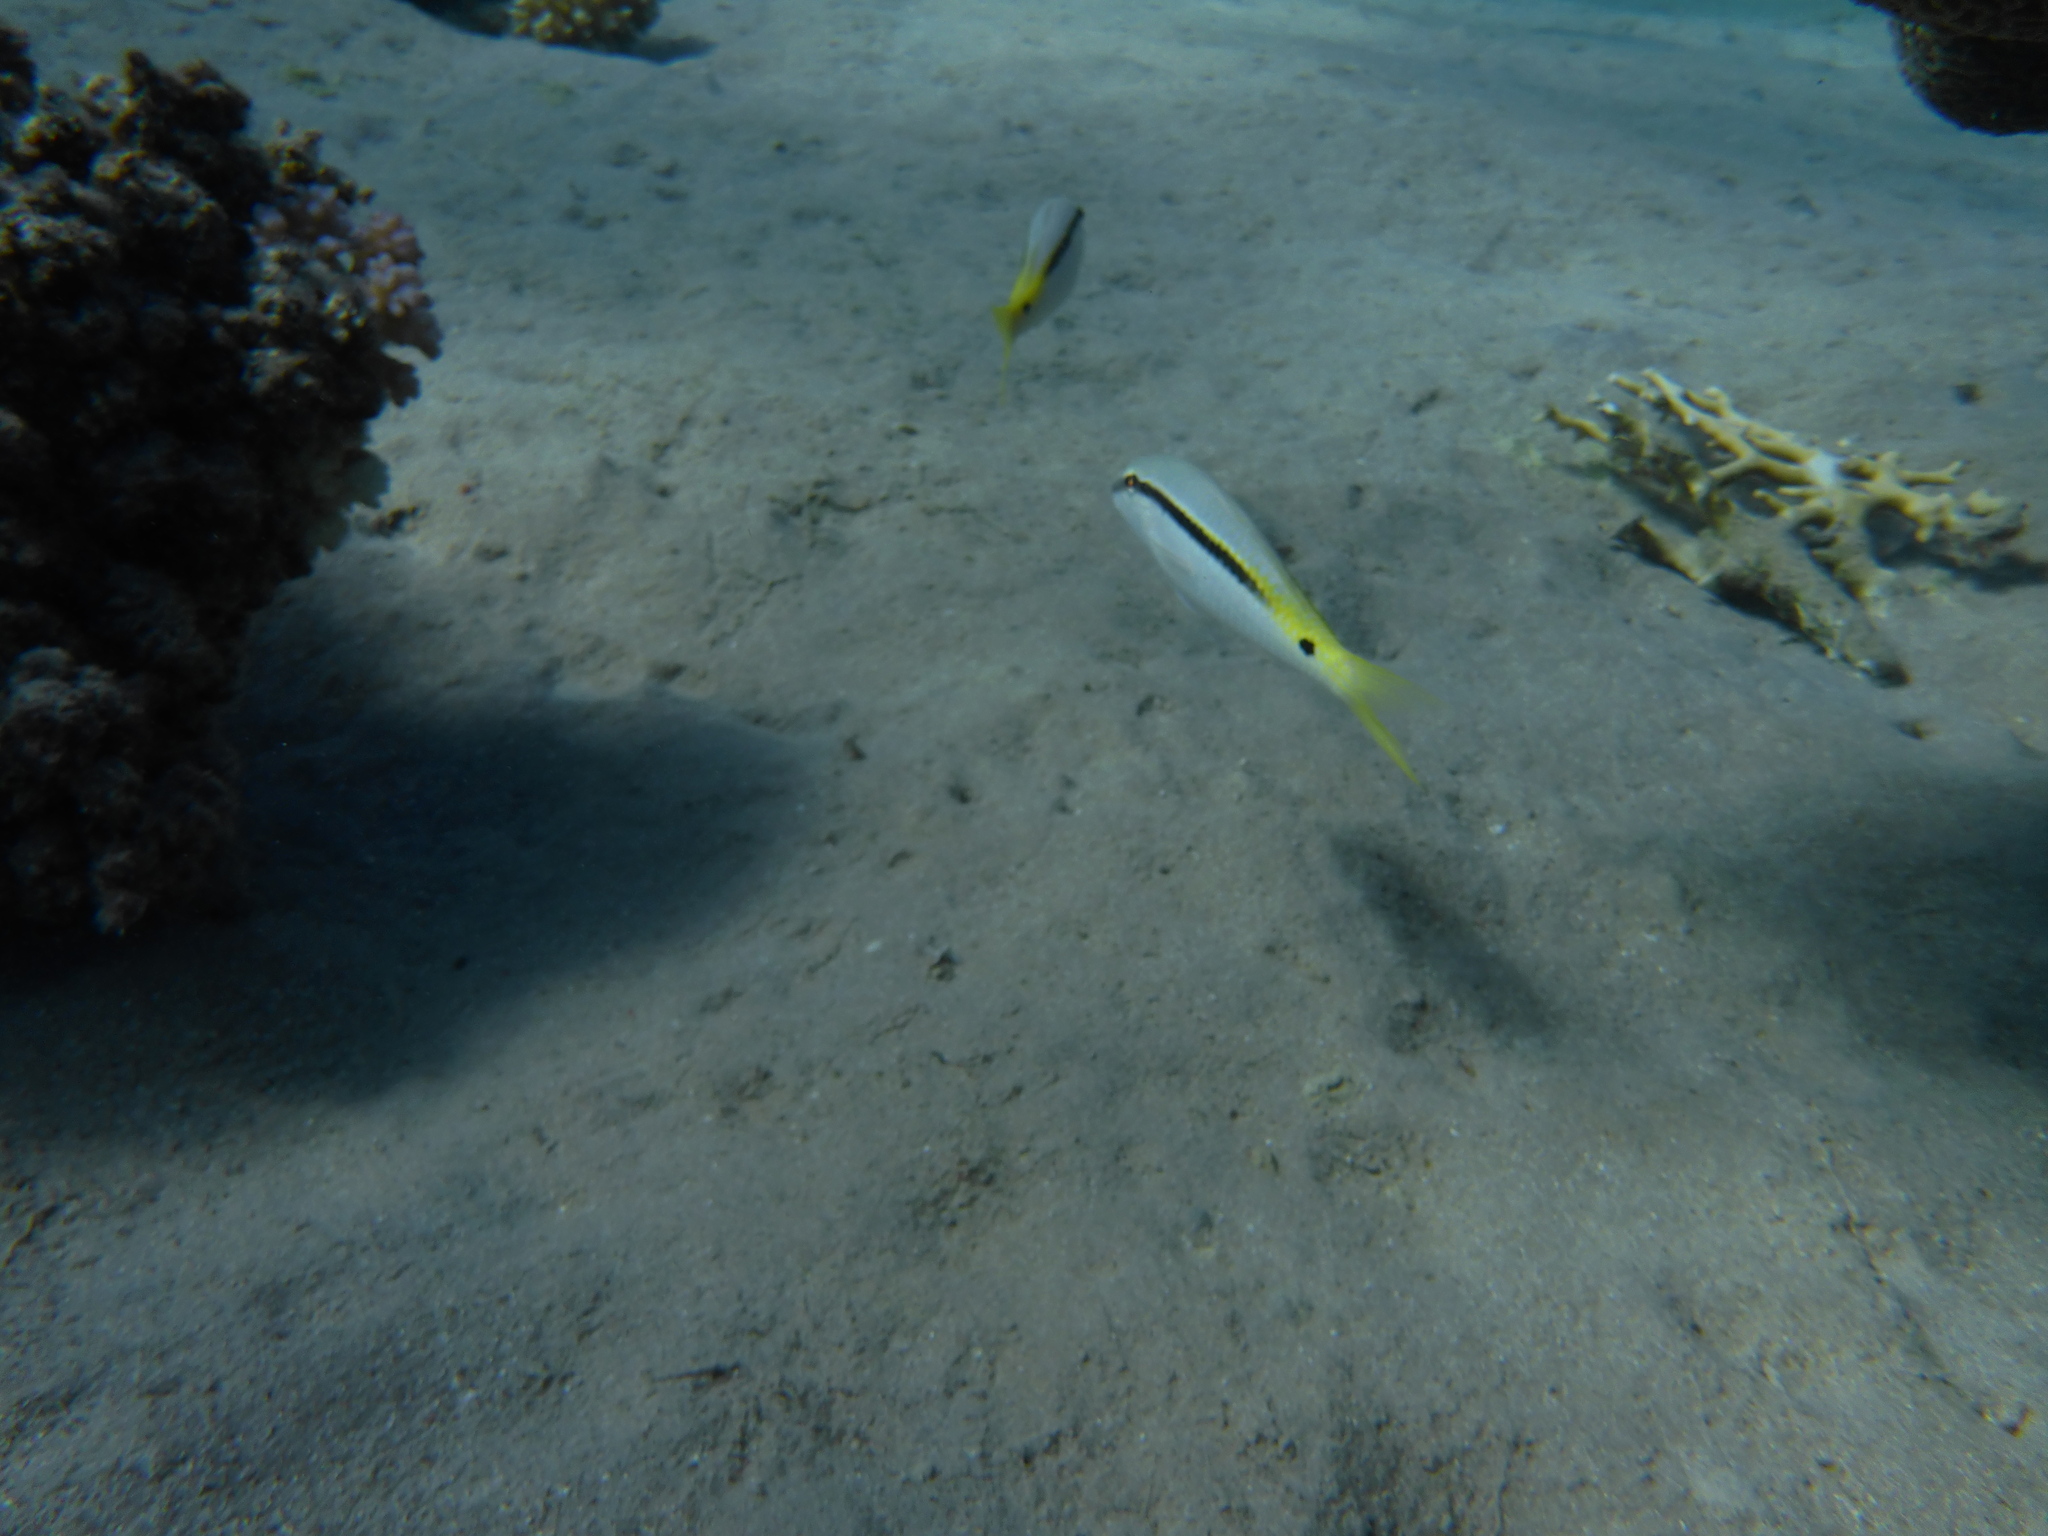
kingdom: Animalia
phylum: Chordata
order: Perciformes
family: Mullidae
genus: Parupeneus
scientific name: Parupeneus forsskali
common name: Red sea goatfish
